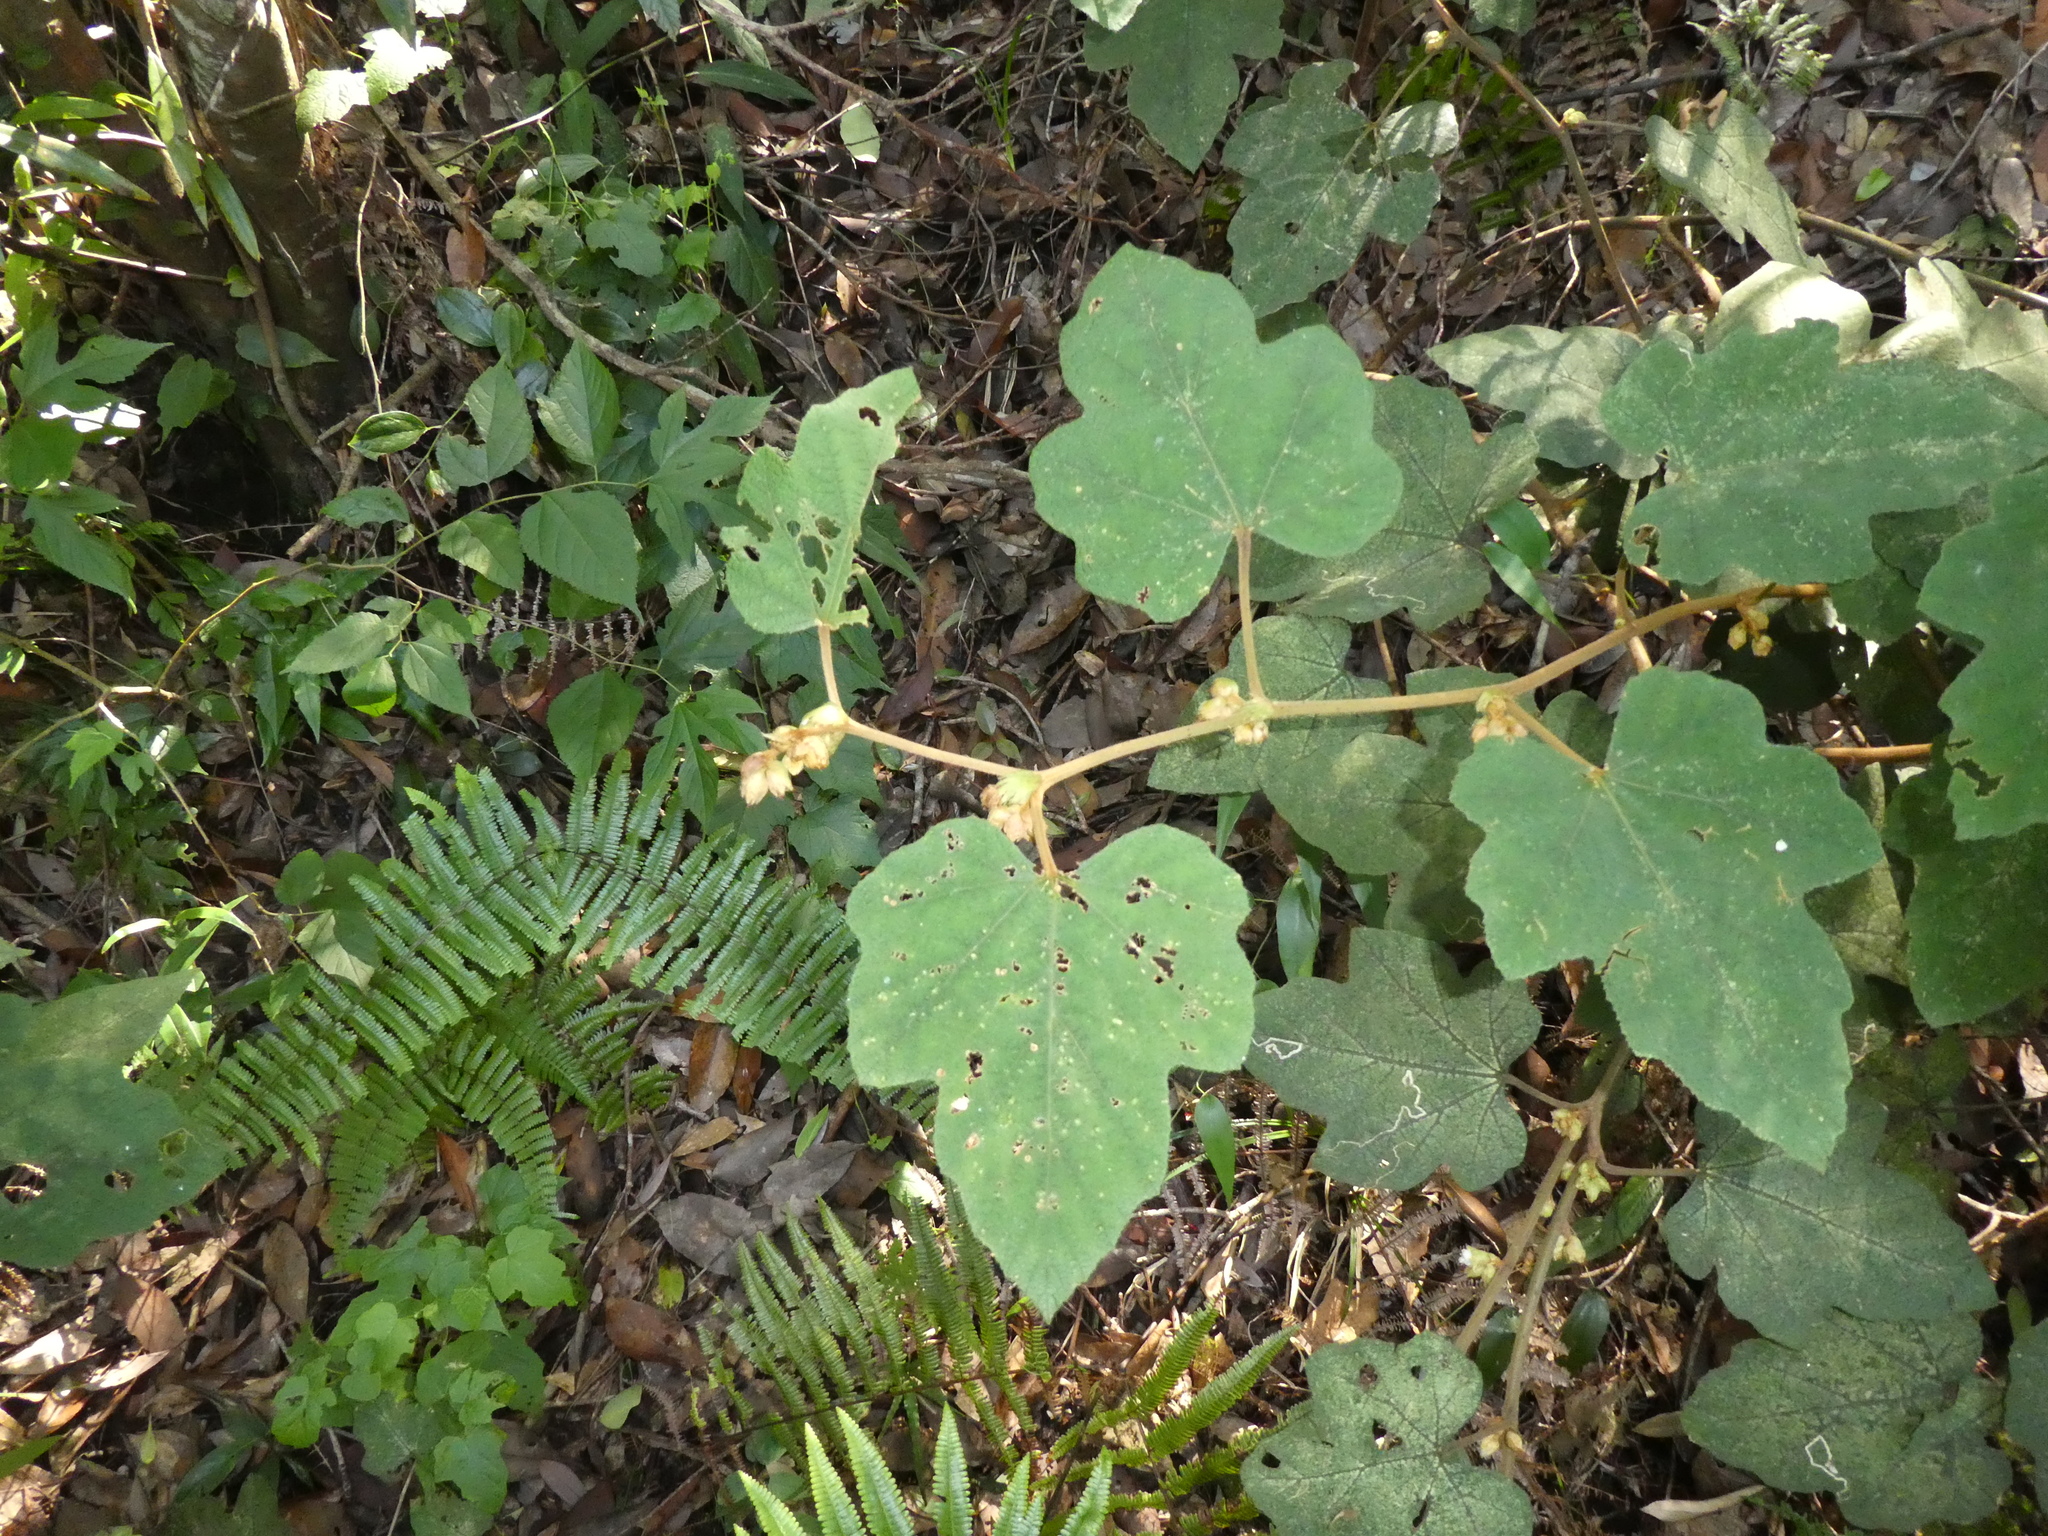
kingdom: Plantae
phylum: Tracheophyta
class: Magnoliopsida
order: Rosales
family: Rosaceae
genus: Rubus
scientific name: Rubus reflexus
